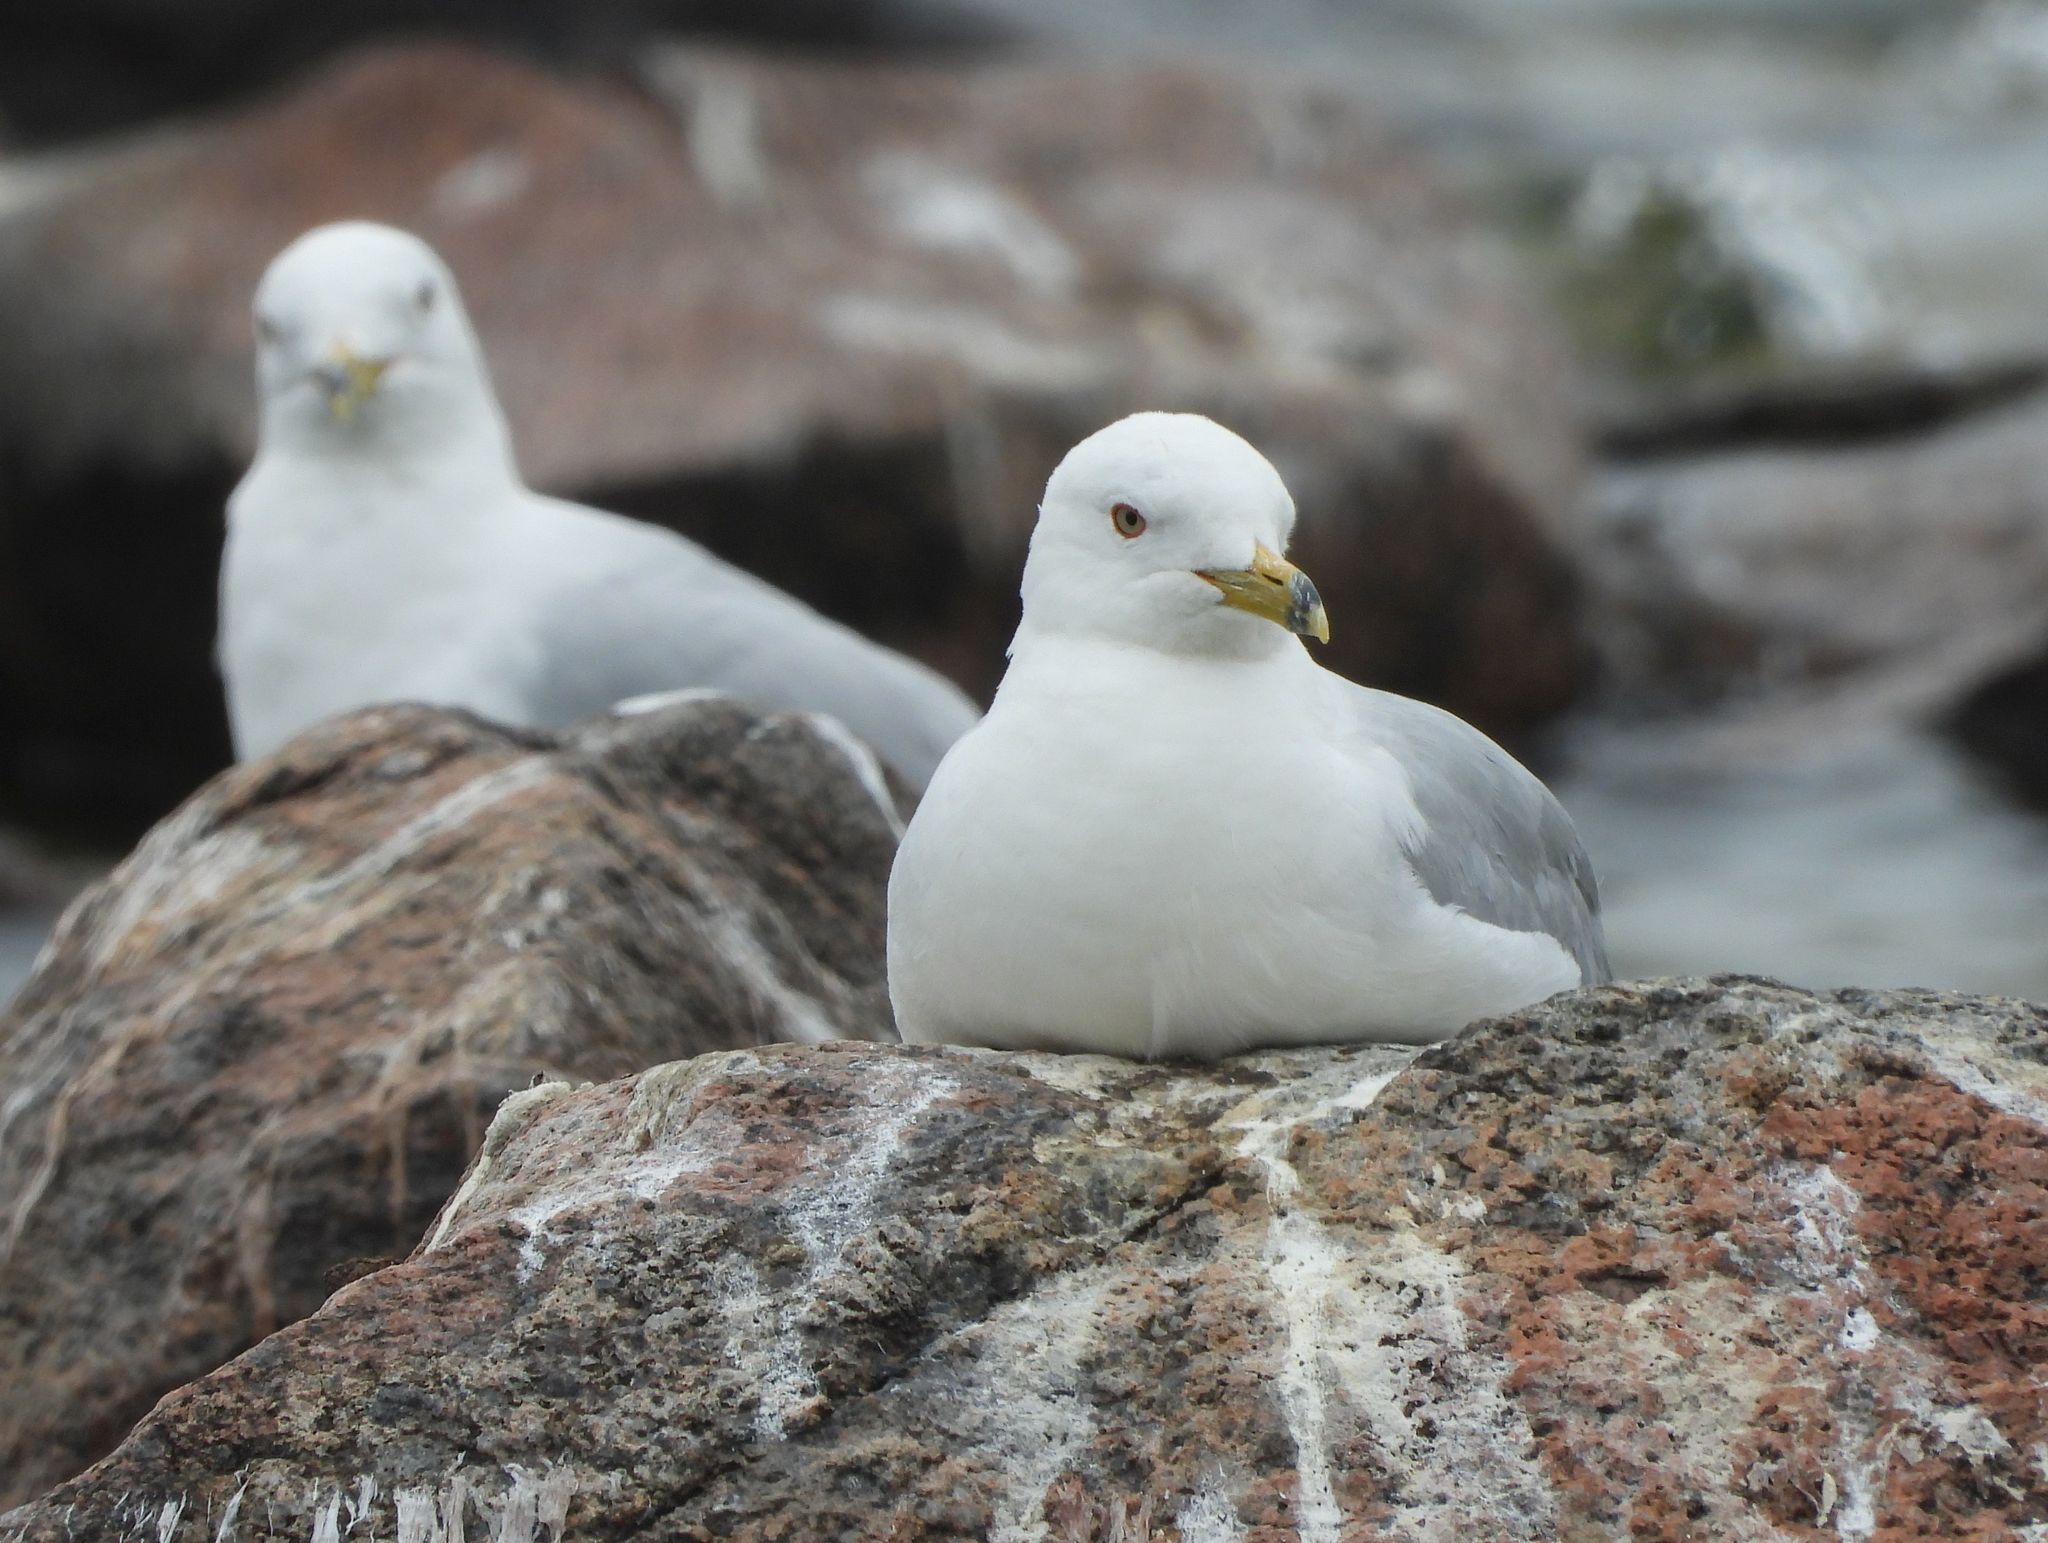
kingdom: Animalia
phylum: Chordata
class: Aves
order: Charadriiformes
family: Laridae
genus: Larus
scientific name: Larus delawarensis
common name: Ring-billed gull
